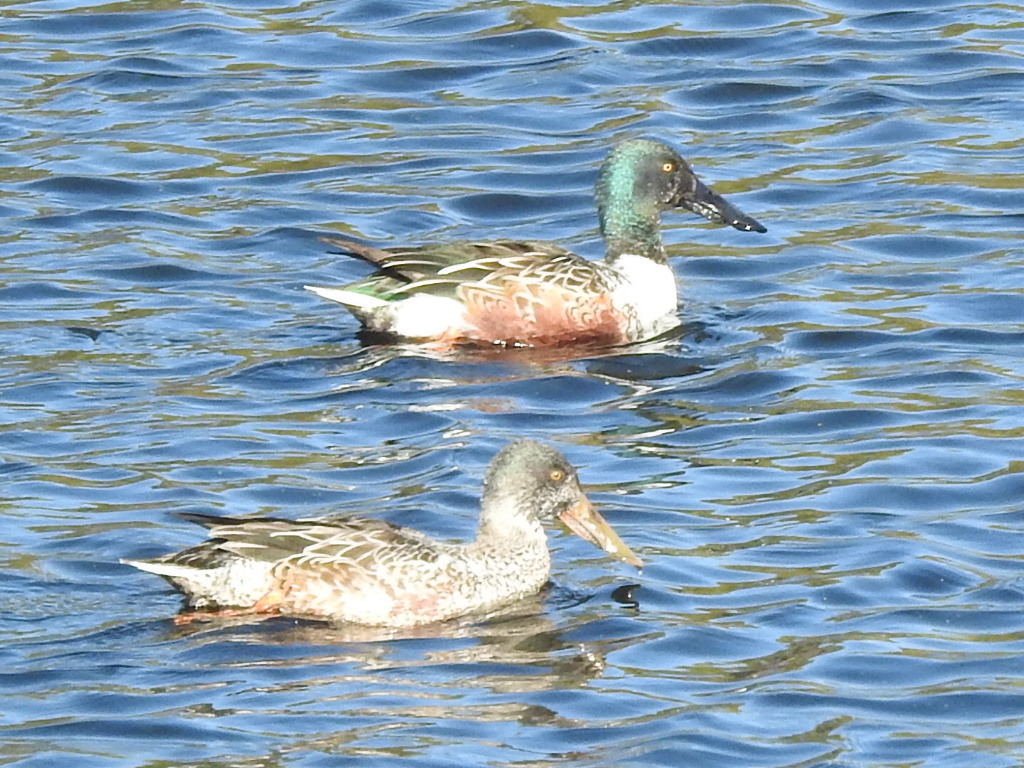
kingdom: Animalia
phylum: Chordata
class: Aves
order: Anseriformes
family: Anatidae
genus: Spatula
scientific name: Spatula clypeata
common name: Northern shoveler
